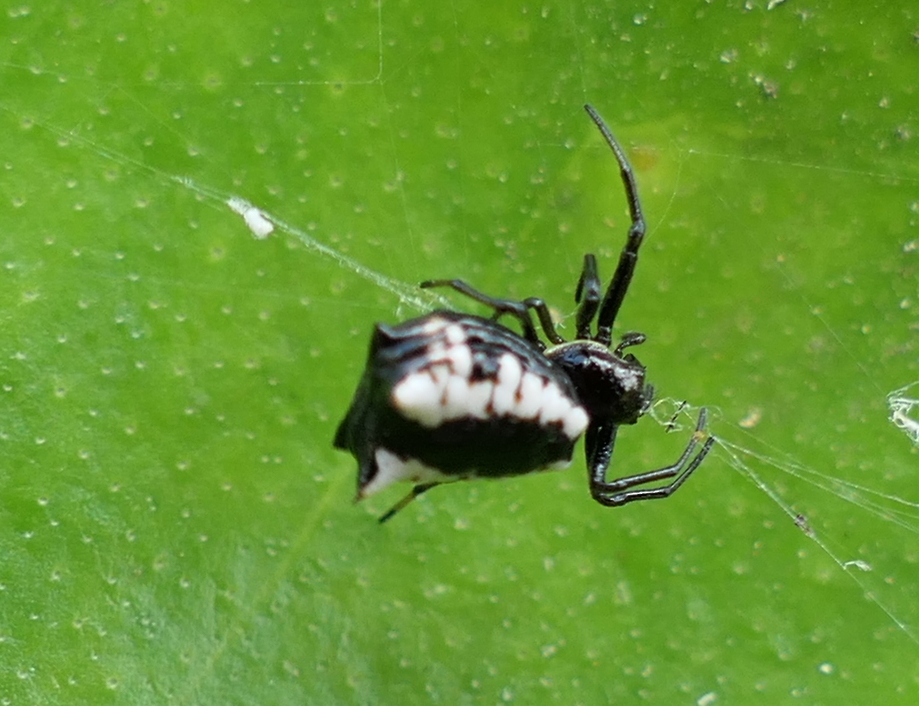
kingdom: Animalia
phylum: Arthropoda
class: Arachnida
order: Araneae
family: Araneidae
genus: Micrathena
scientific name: Micrathena patruelis
